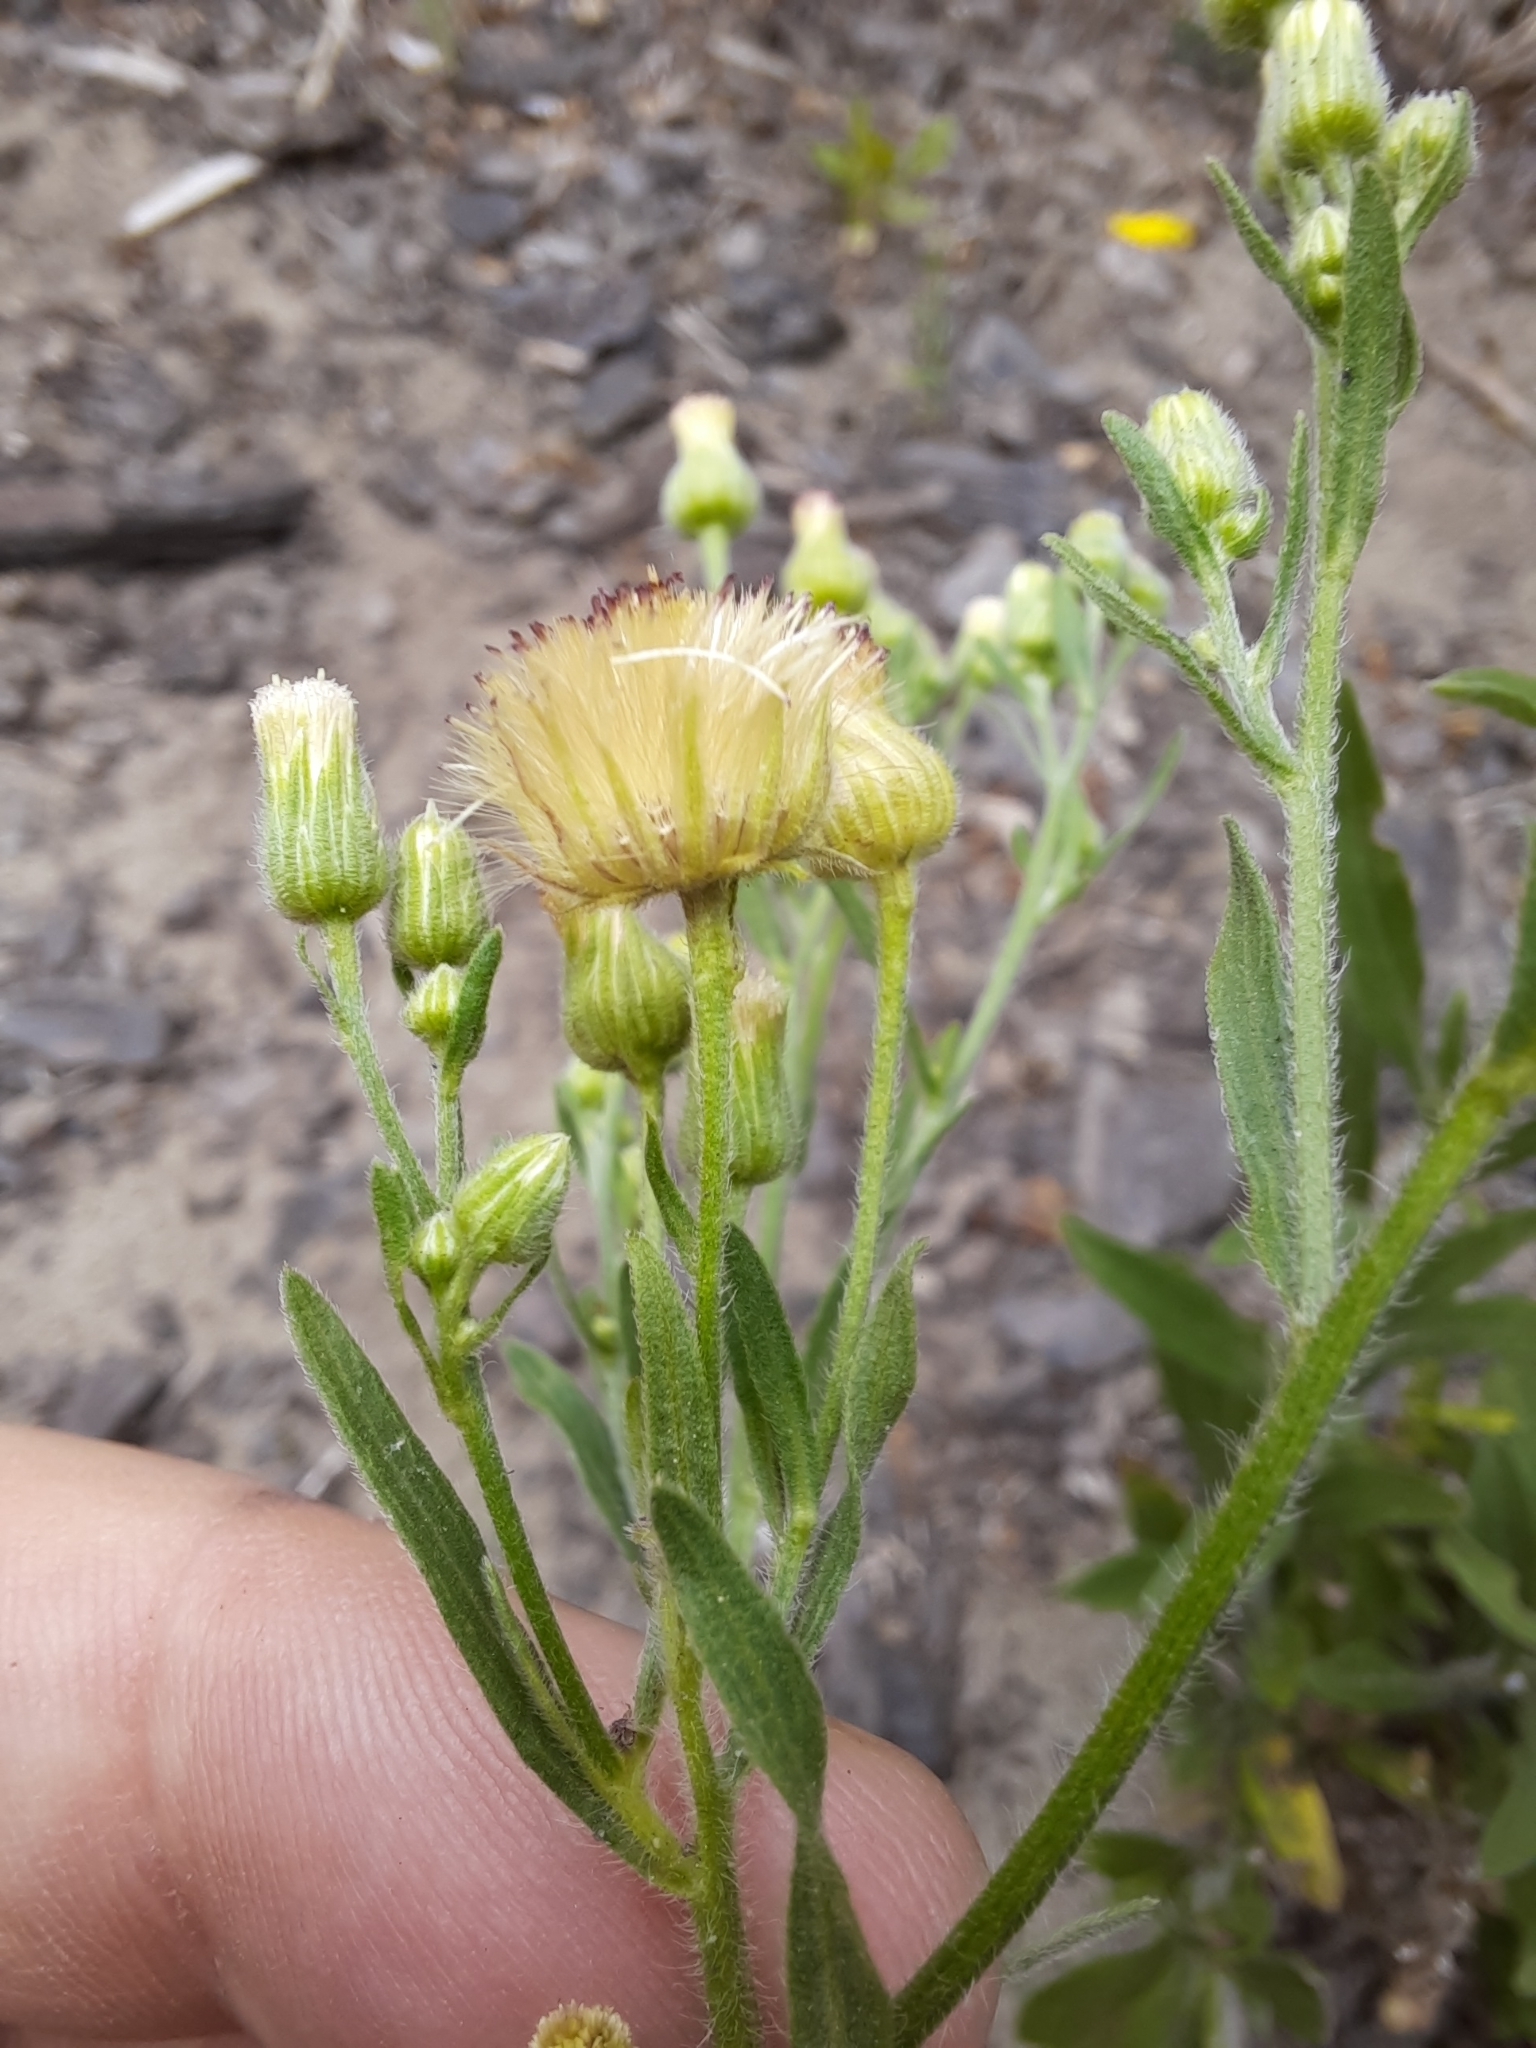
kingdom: Plantae
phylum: Tracheophyta
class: Magnoliopsida
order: Asterales
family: Asteraceae
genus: Erigeron
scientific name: Erigeron floribundus
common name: Bilbao fleabane
